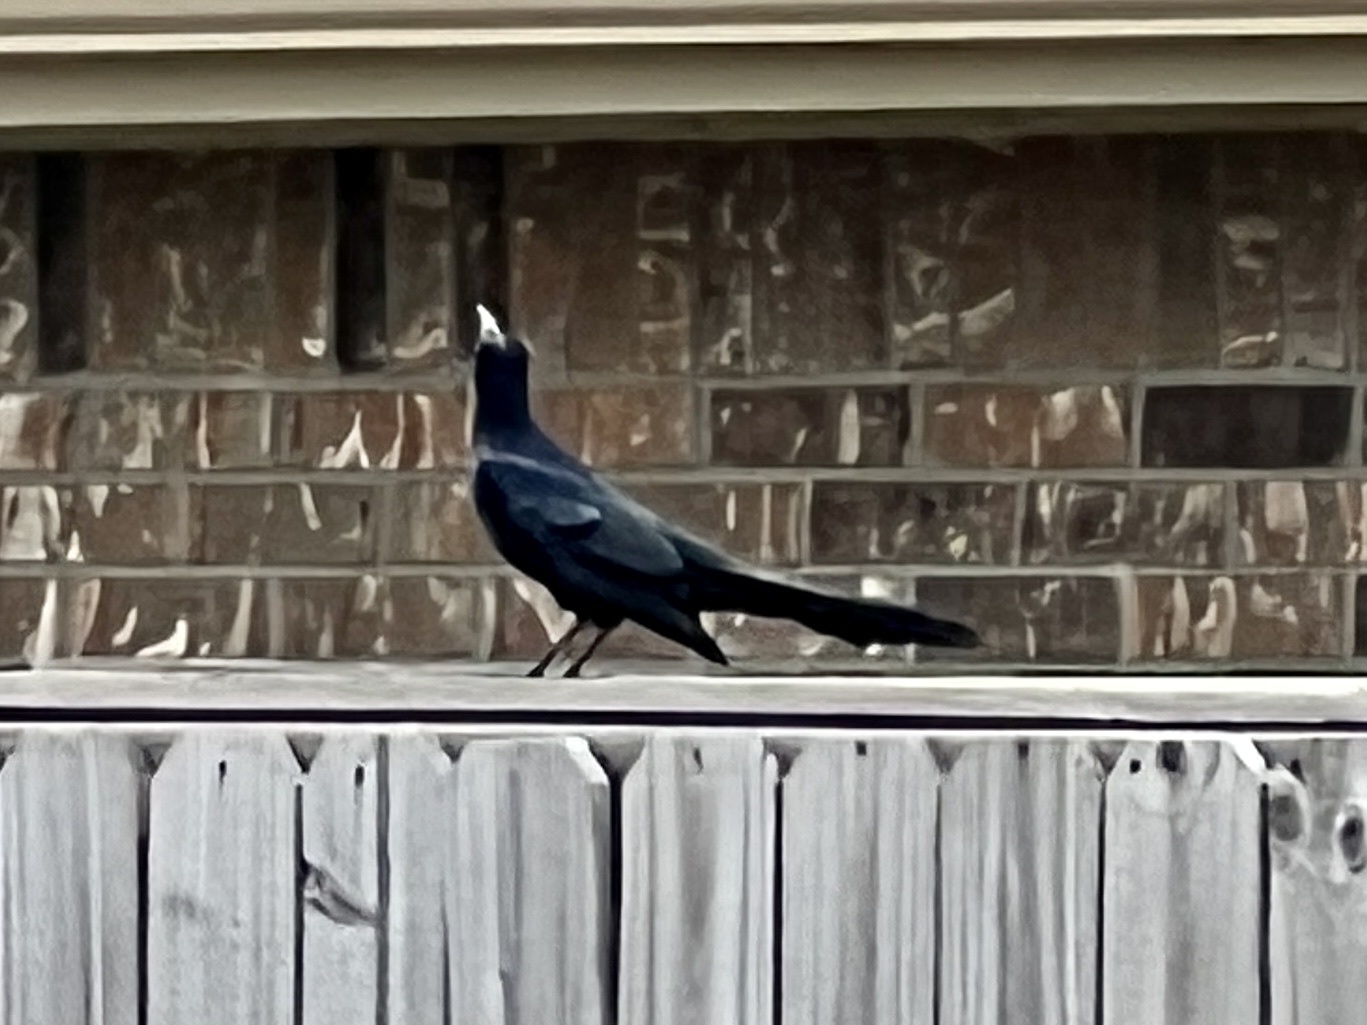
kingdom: Animalia
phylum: Chordata
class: Aves
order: Passeriformes
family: Icteridae
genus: Quiscalus
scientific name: Quiscalus mexicanus
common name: Great-tailed grackle
